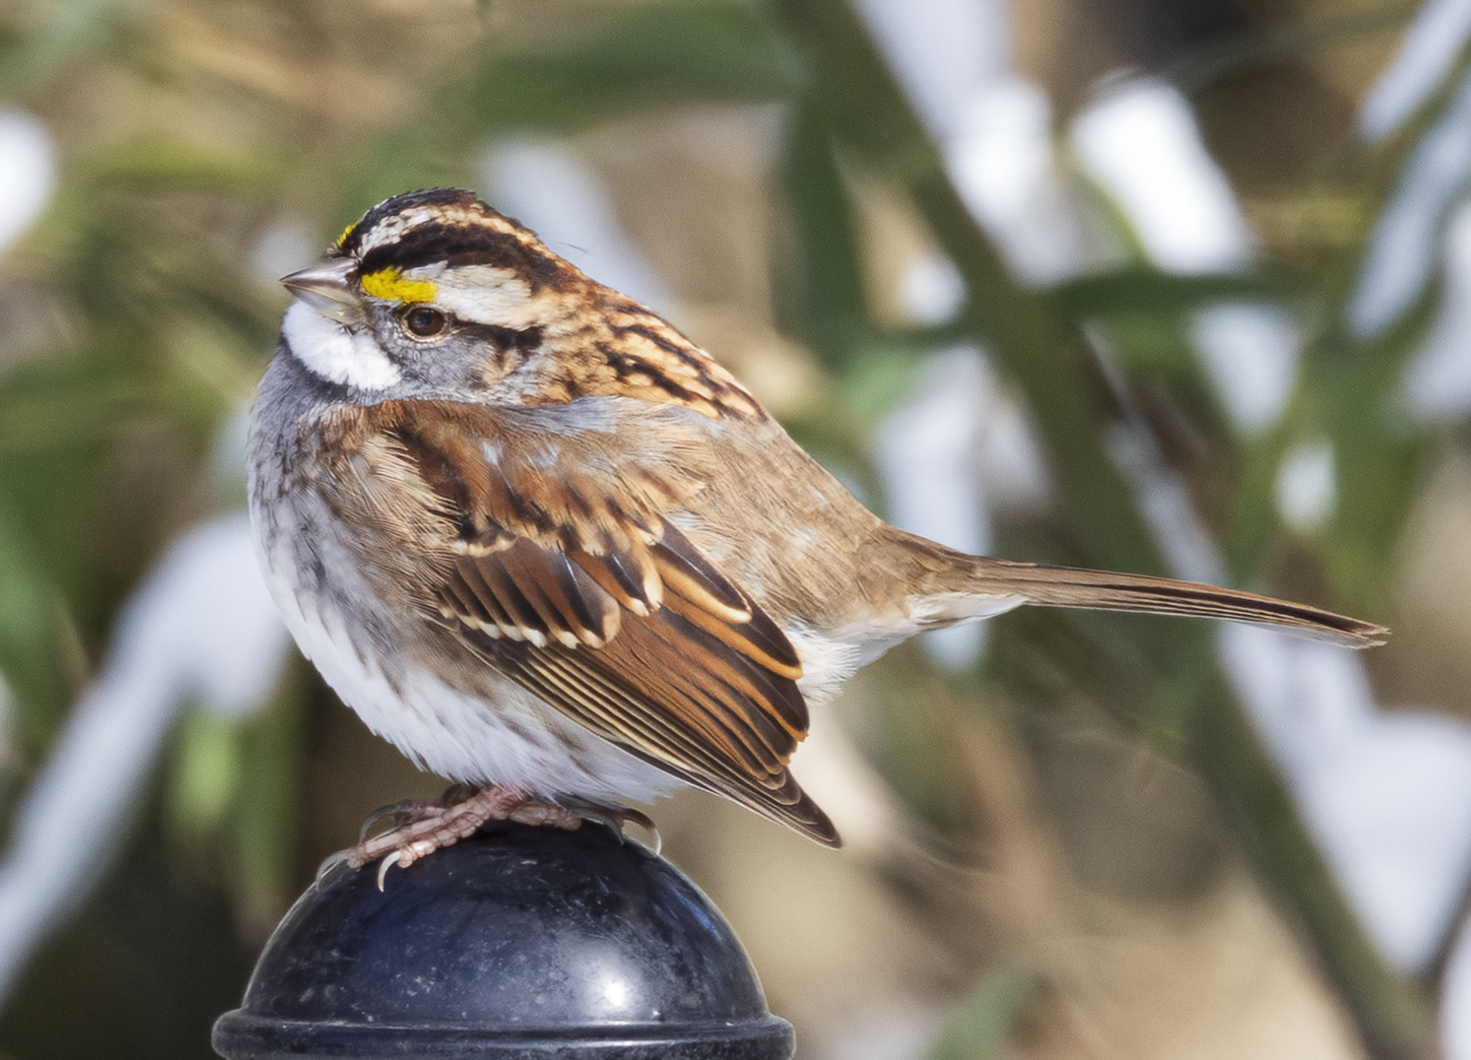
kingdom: Animalia
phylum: Chordata
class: Aves
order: Passeriformes
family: Passerellidae
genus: Zonotrichia
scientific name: Zonotrichia albicollis
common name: White-throated sparrow
